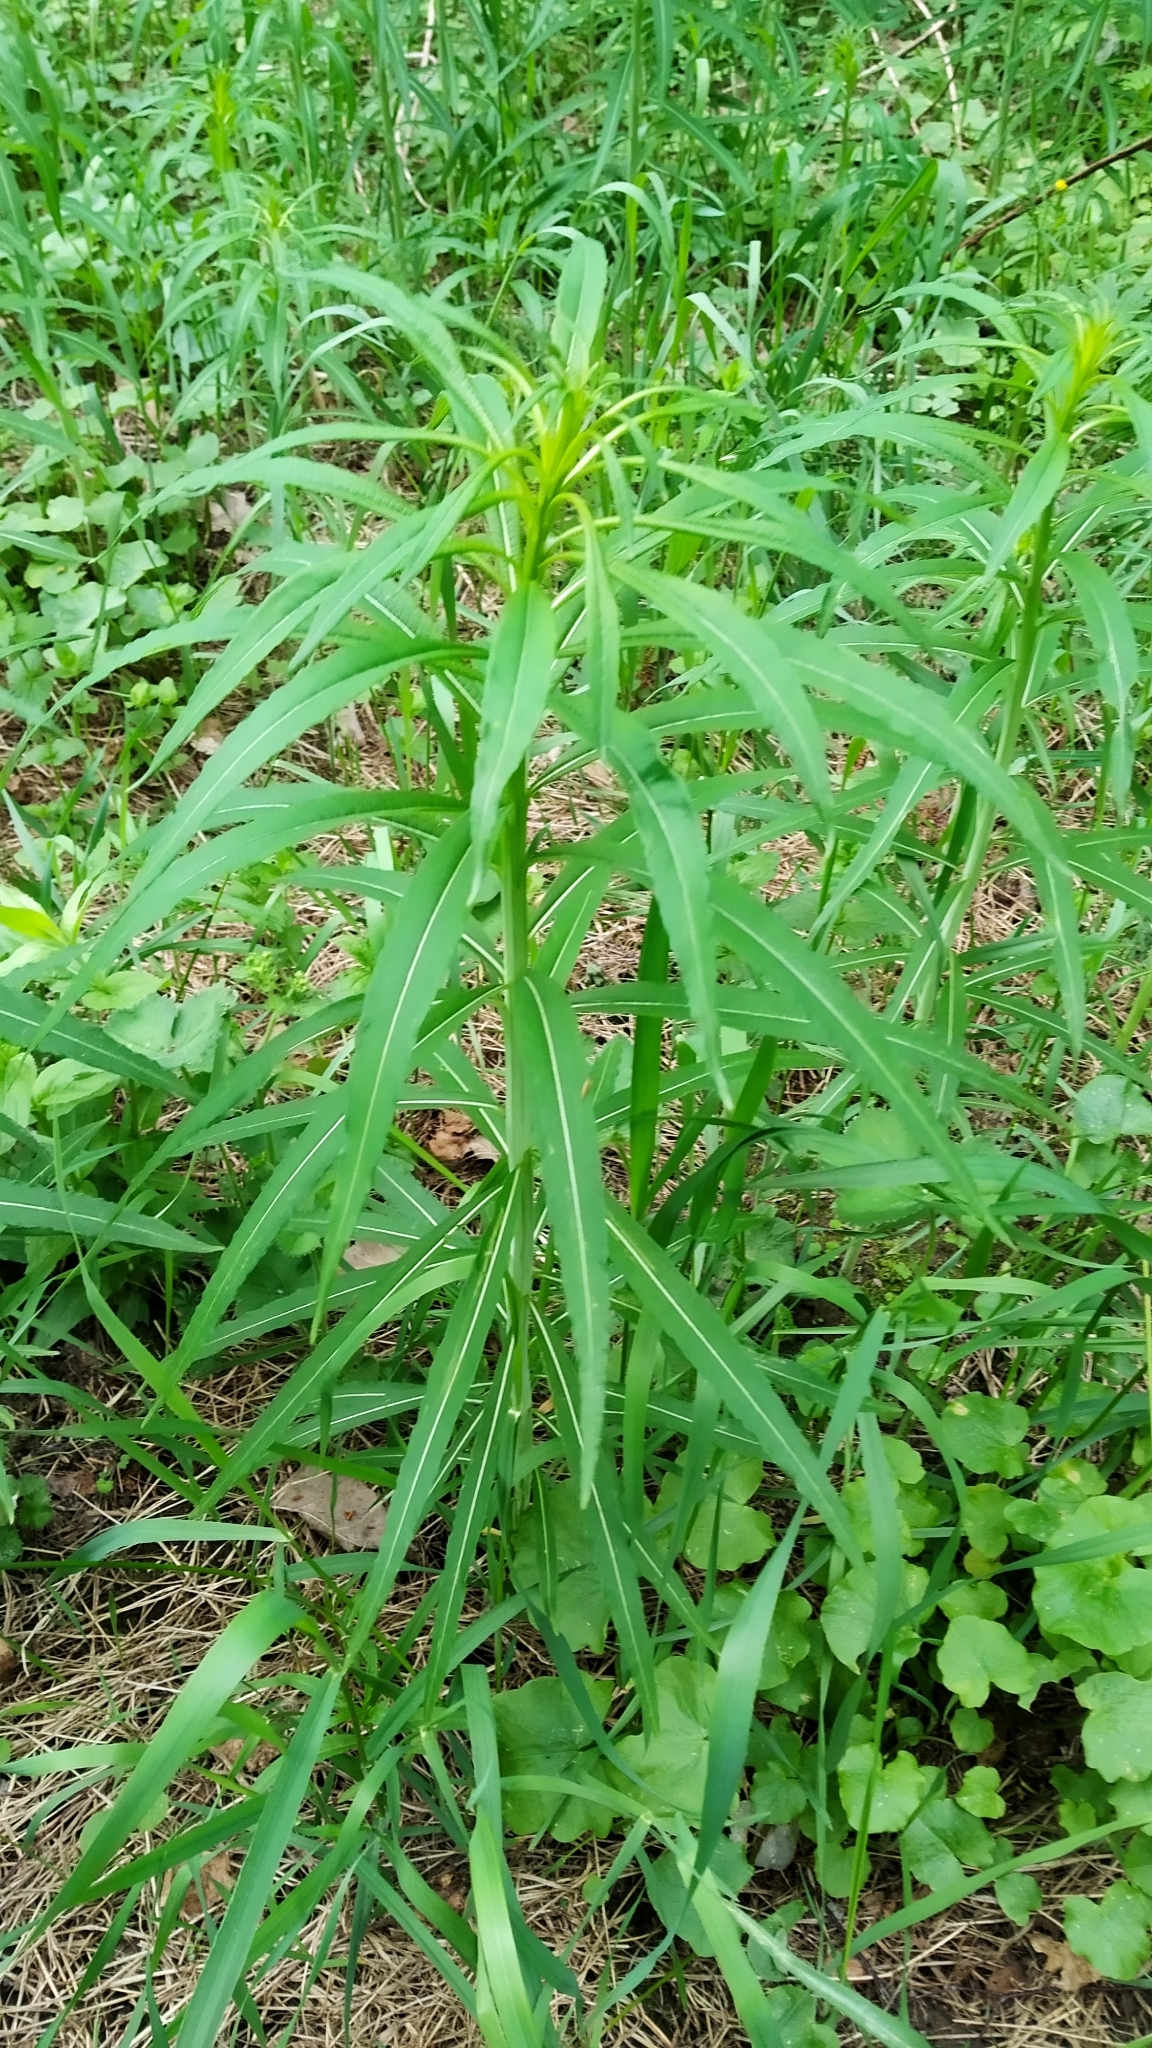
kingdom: Plantae
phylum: Tracheophyta
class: Magnoliopsida
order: Myrtales
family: Onagraceae
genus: Chamaenerion
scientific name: Chamaenerion angustifolium
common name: Fireweed
